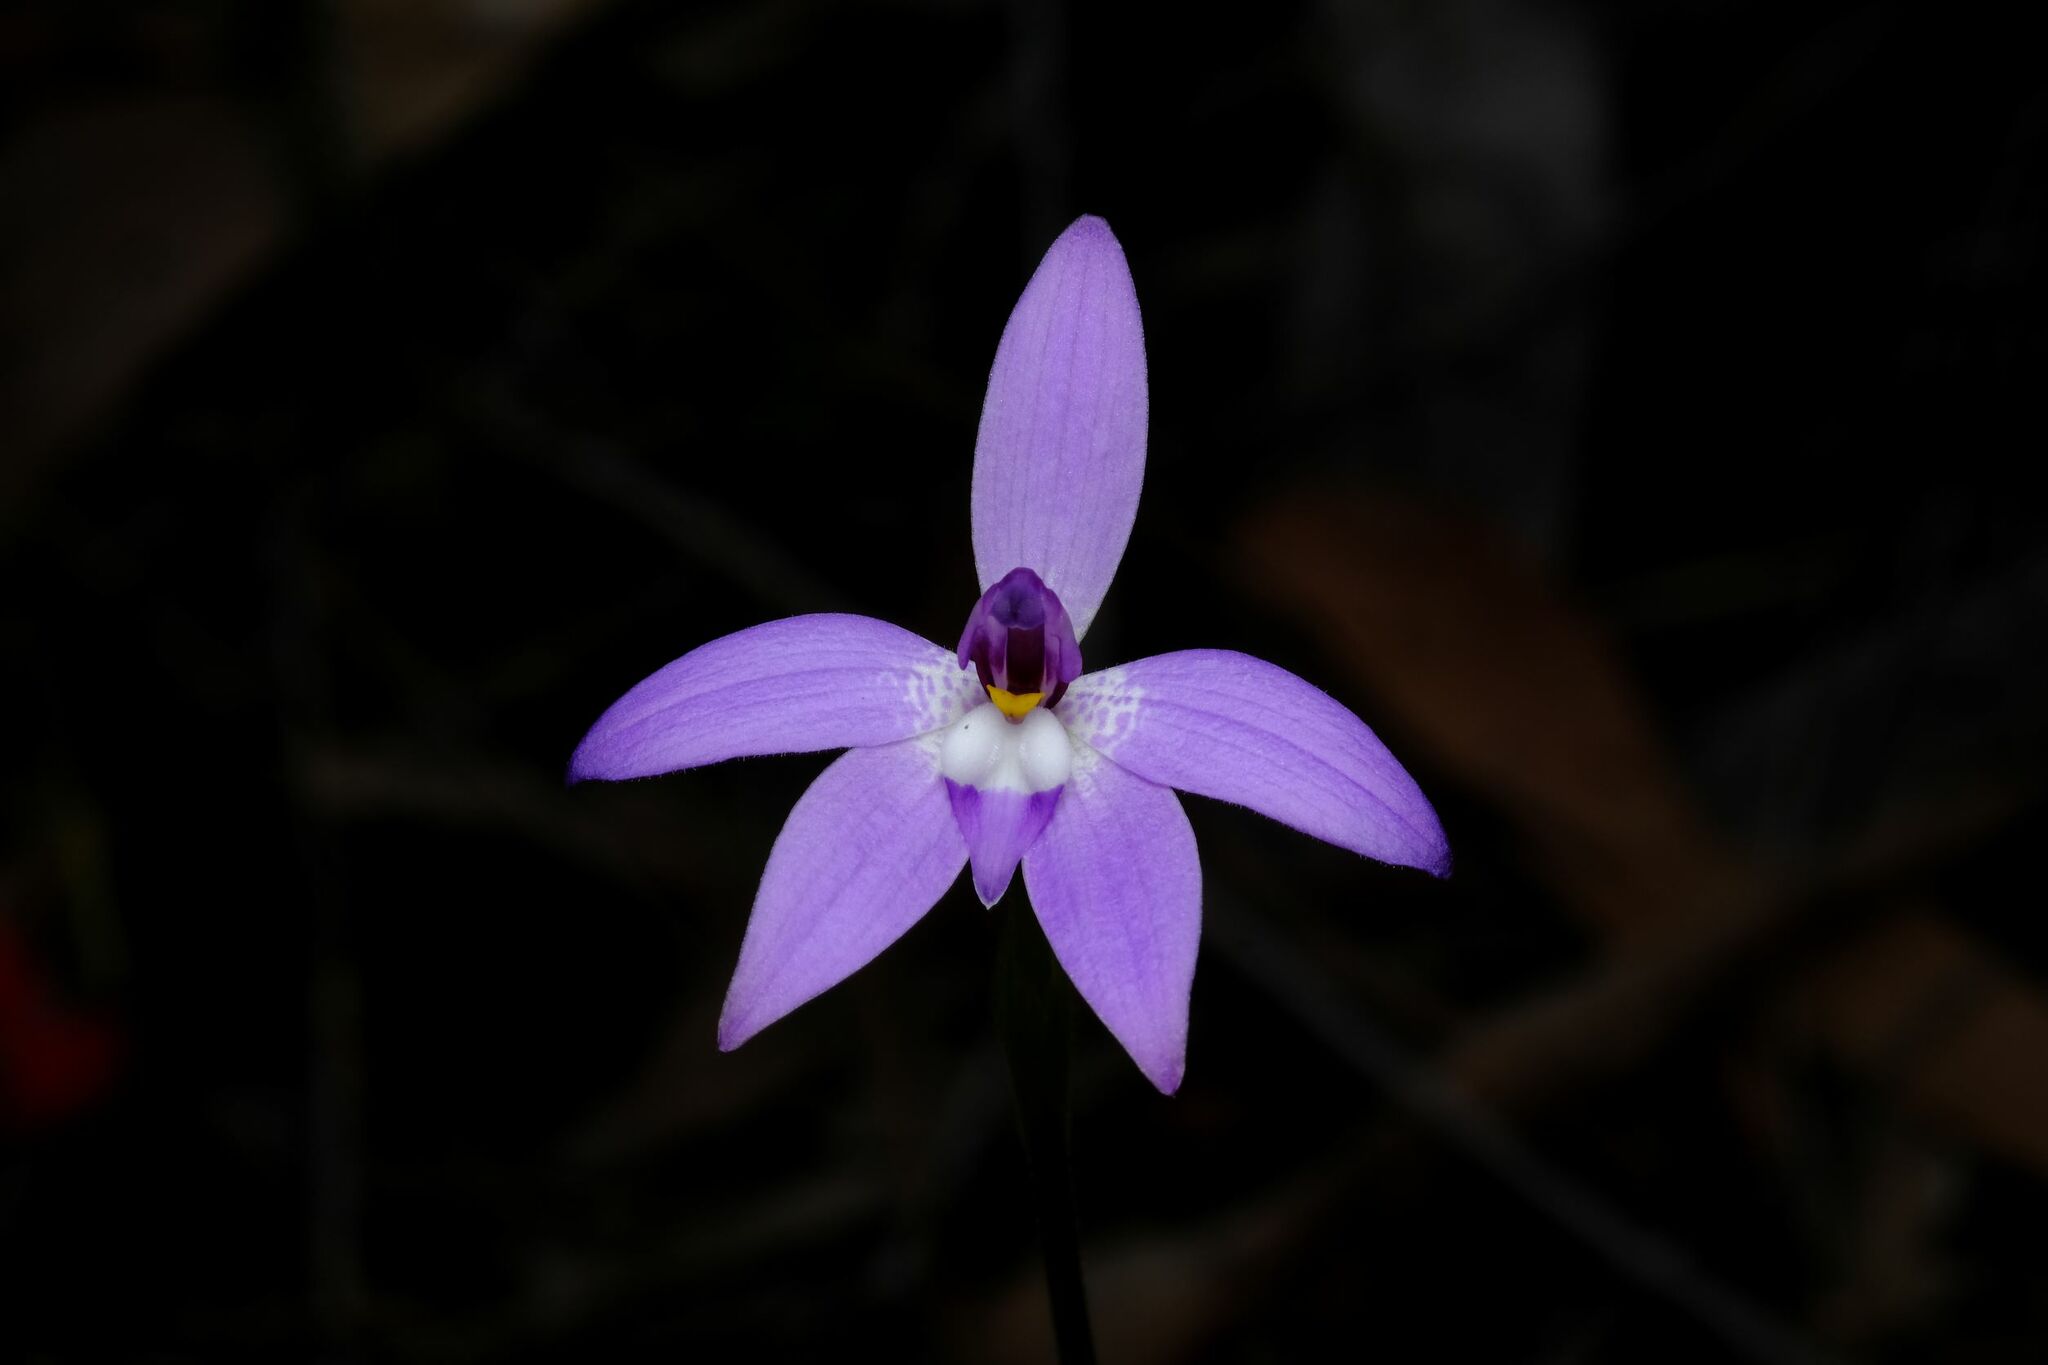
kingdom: Plantae
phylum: Tracheophyta
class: Liliopsida
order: Asparagales
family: Orchidaceae
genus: Caladenia
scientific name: Caladenia major
